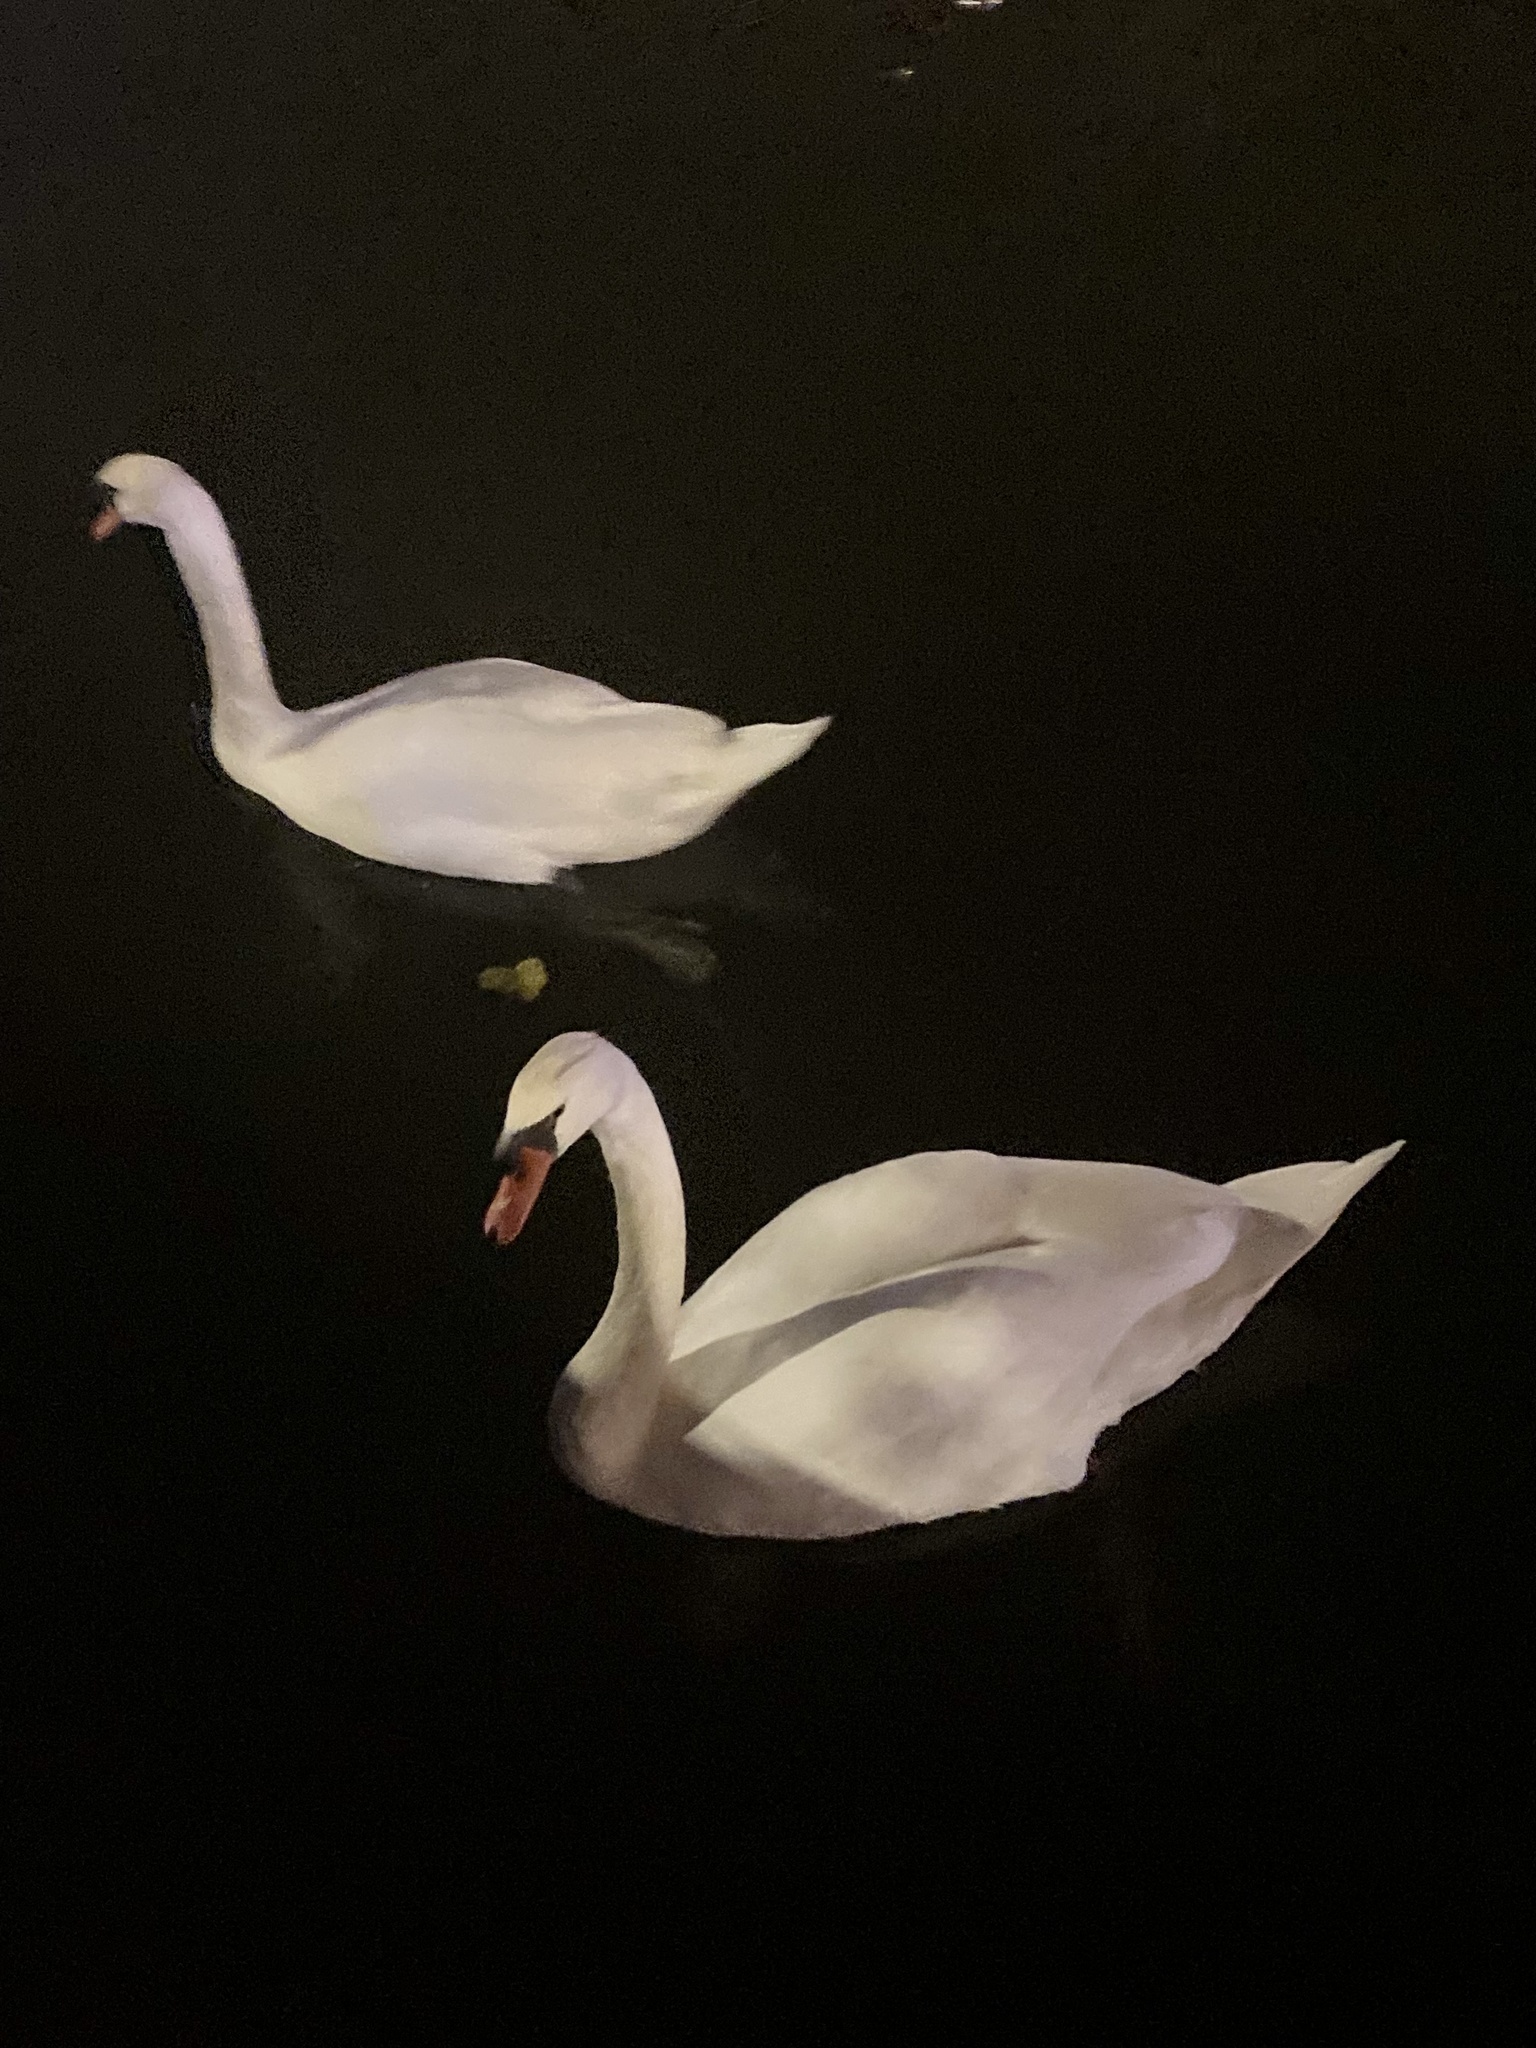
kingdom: Animalia
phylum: Chordata
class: Aves
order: Anseriformes
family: Anatidae
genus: Cygnus
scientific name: Cygnus olor
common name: Mute swan
